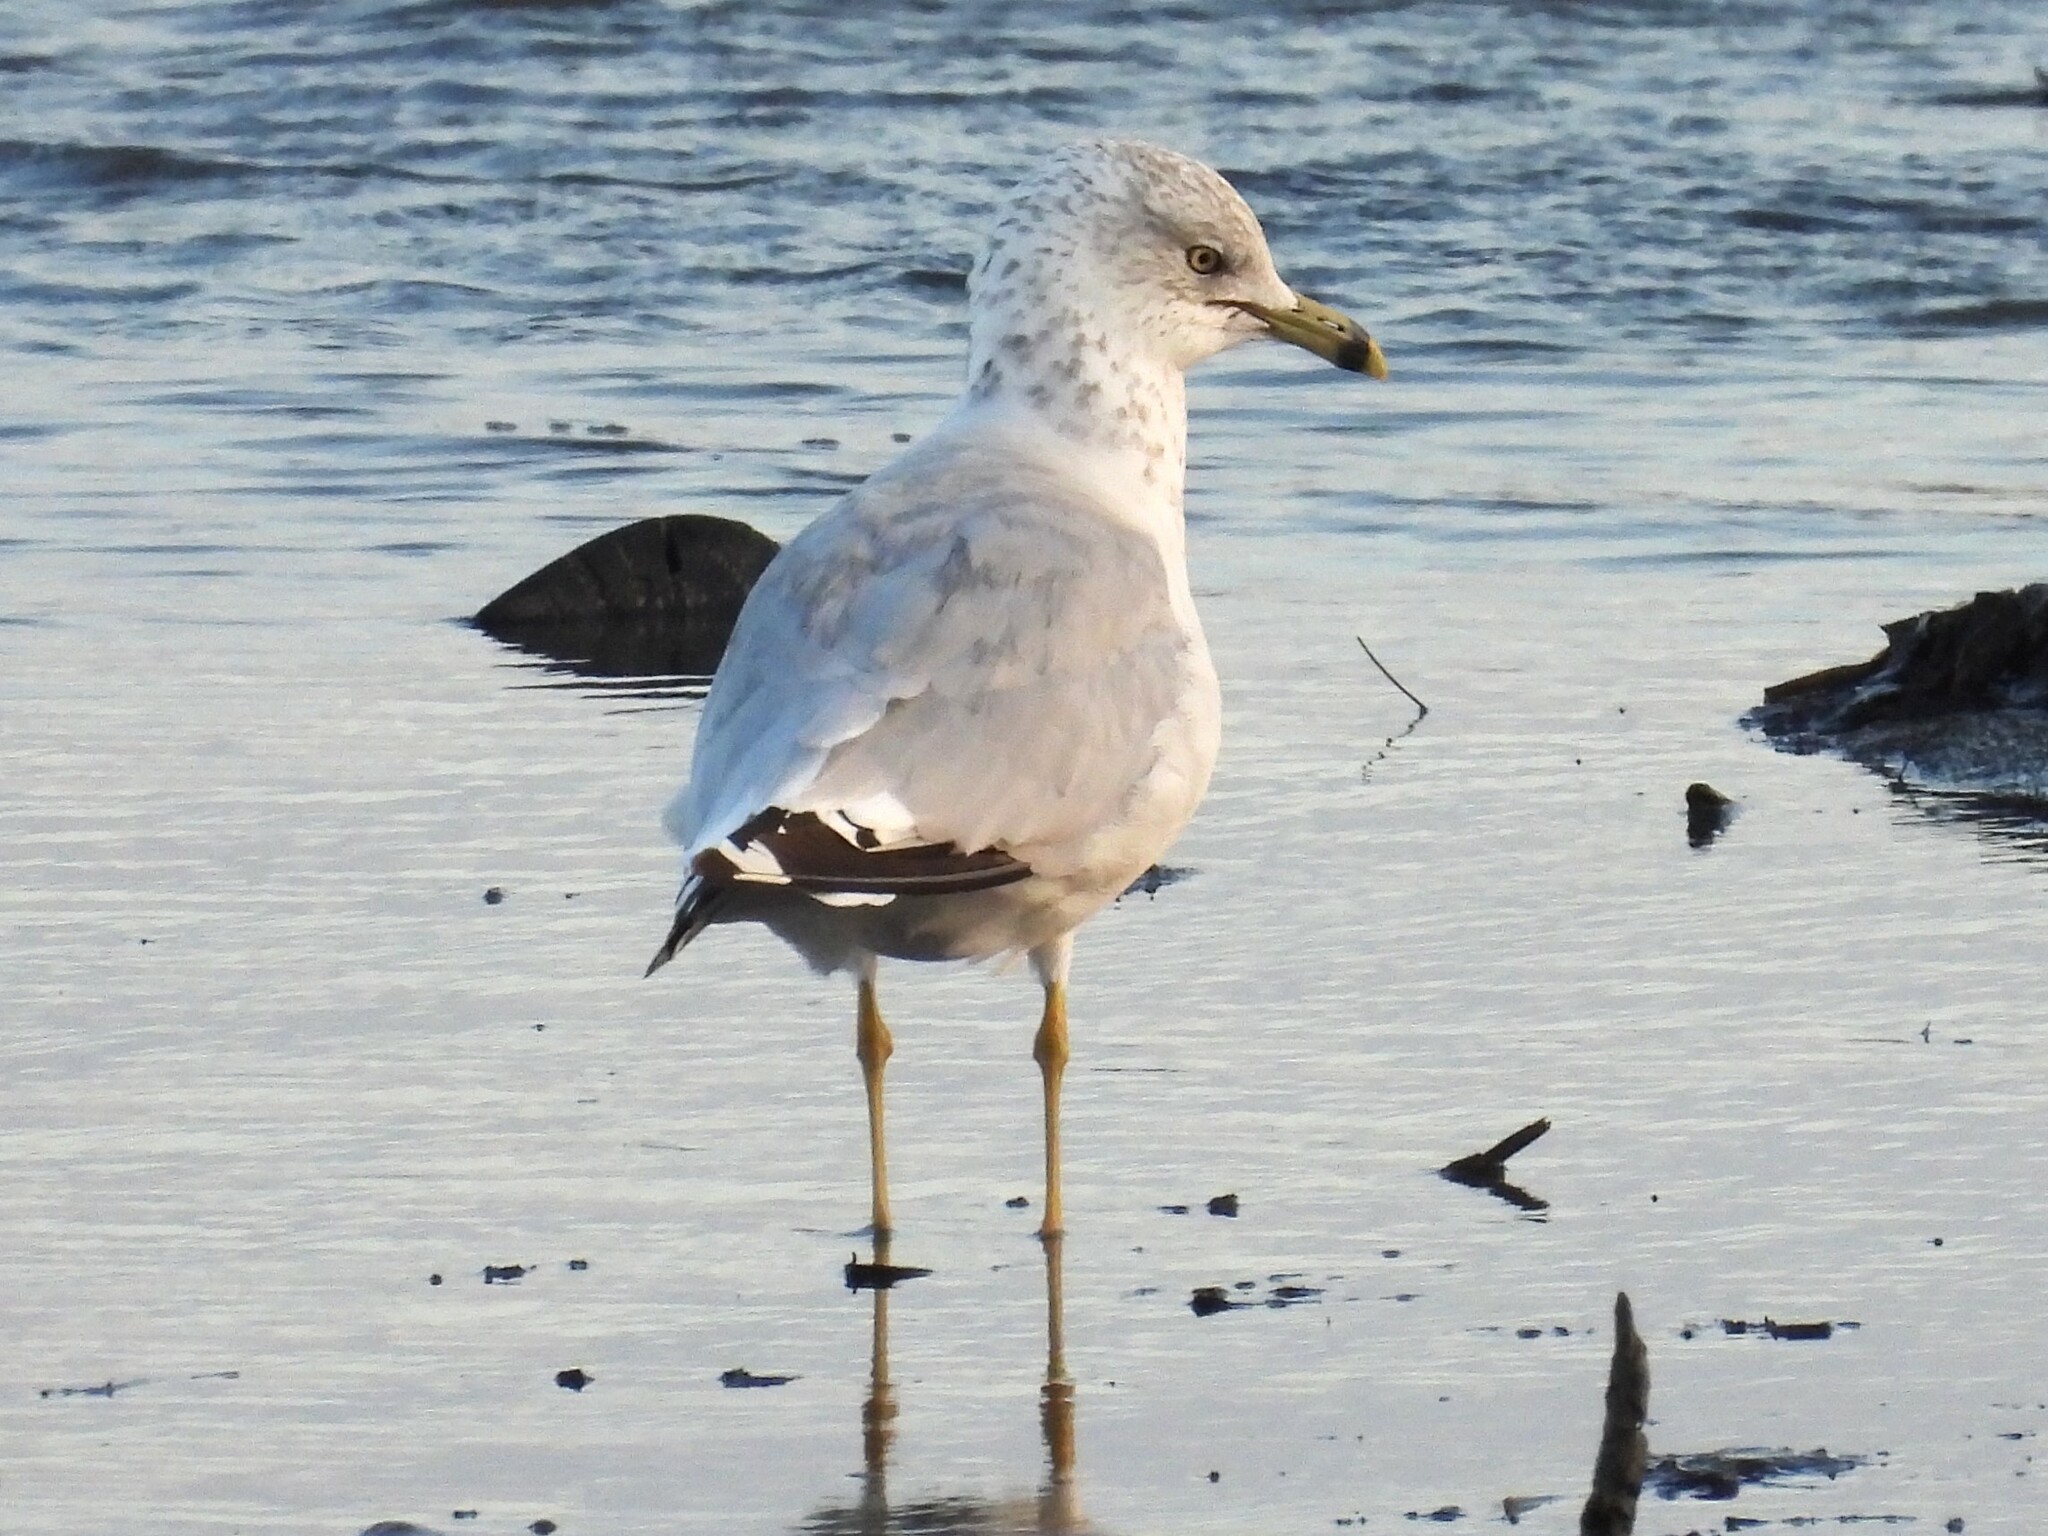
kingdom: Animalia
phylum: Chordata
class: Aves
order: Charadriiformes
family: Laridae
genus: Larus
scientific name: Larus delawarensis
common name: Ring-billed gull
